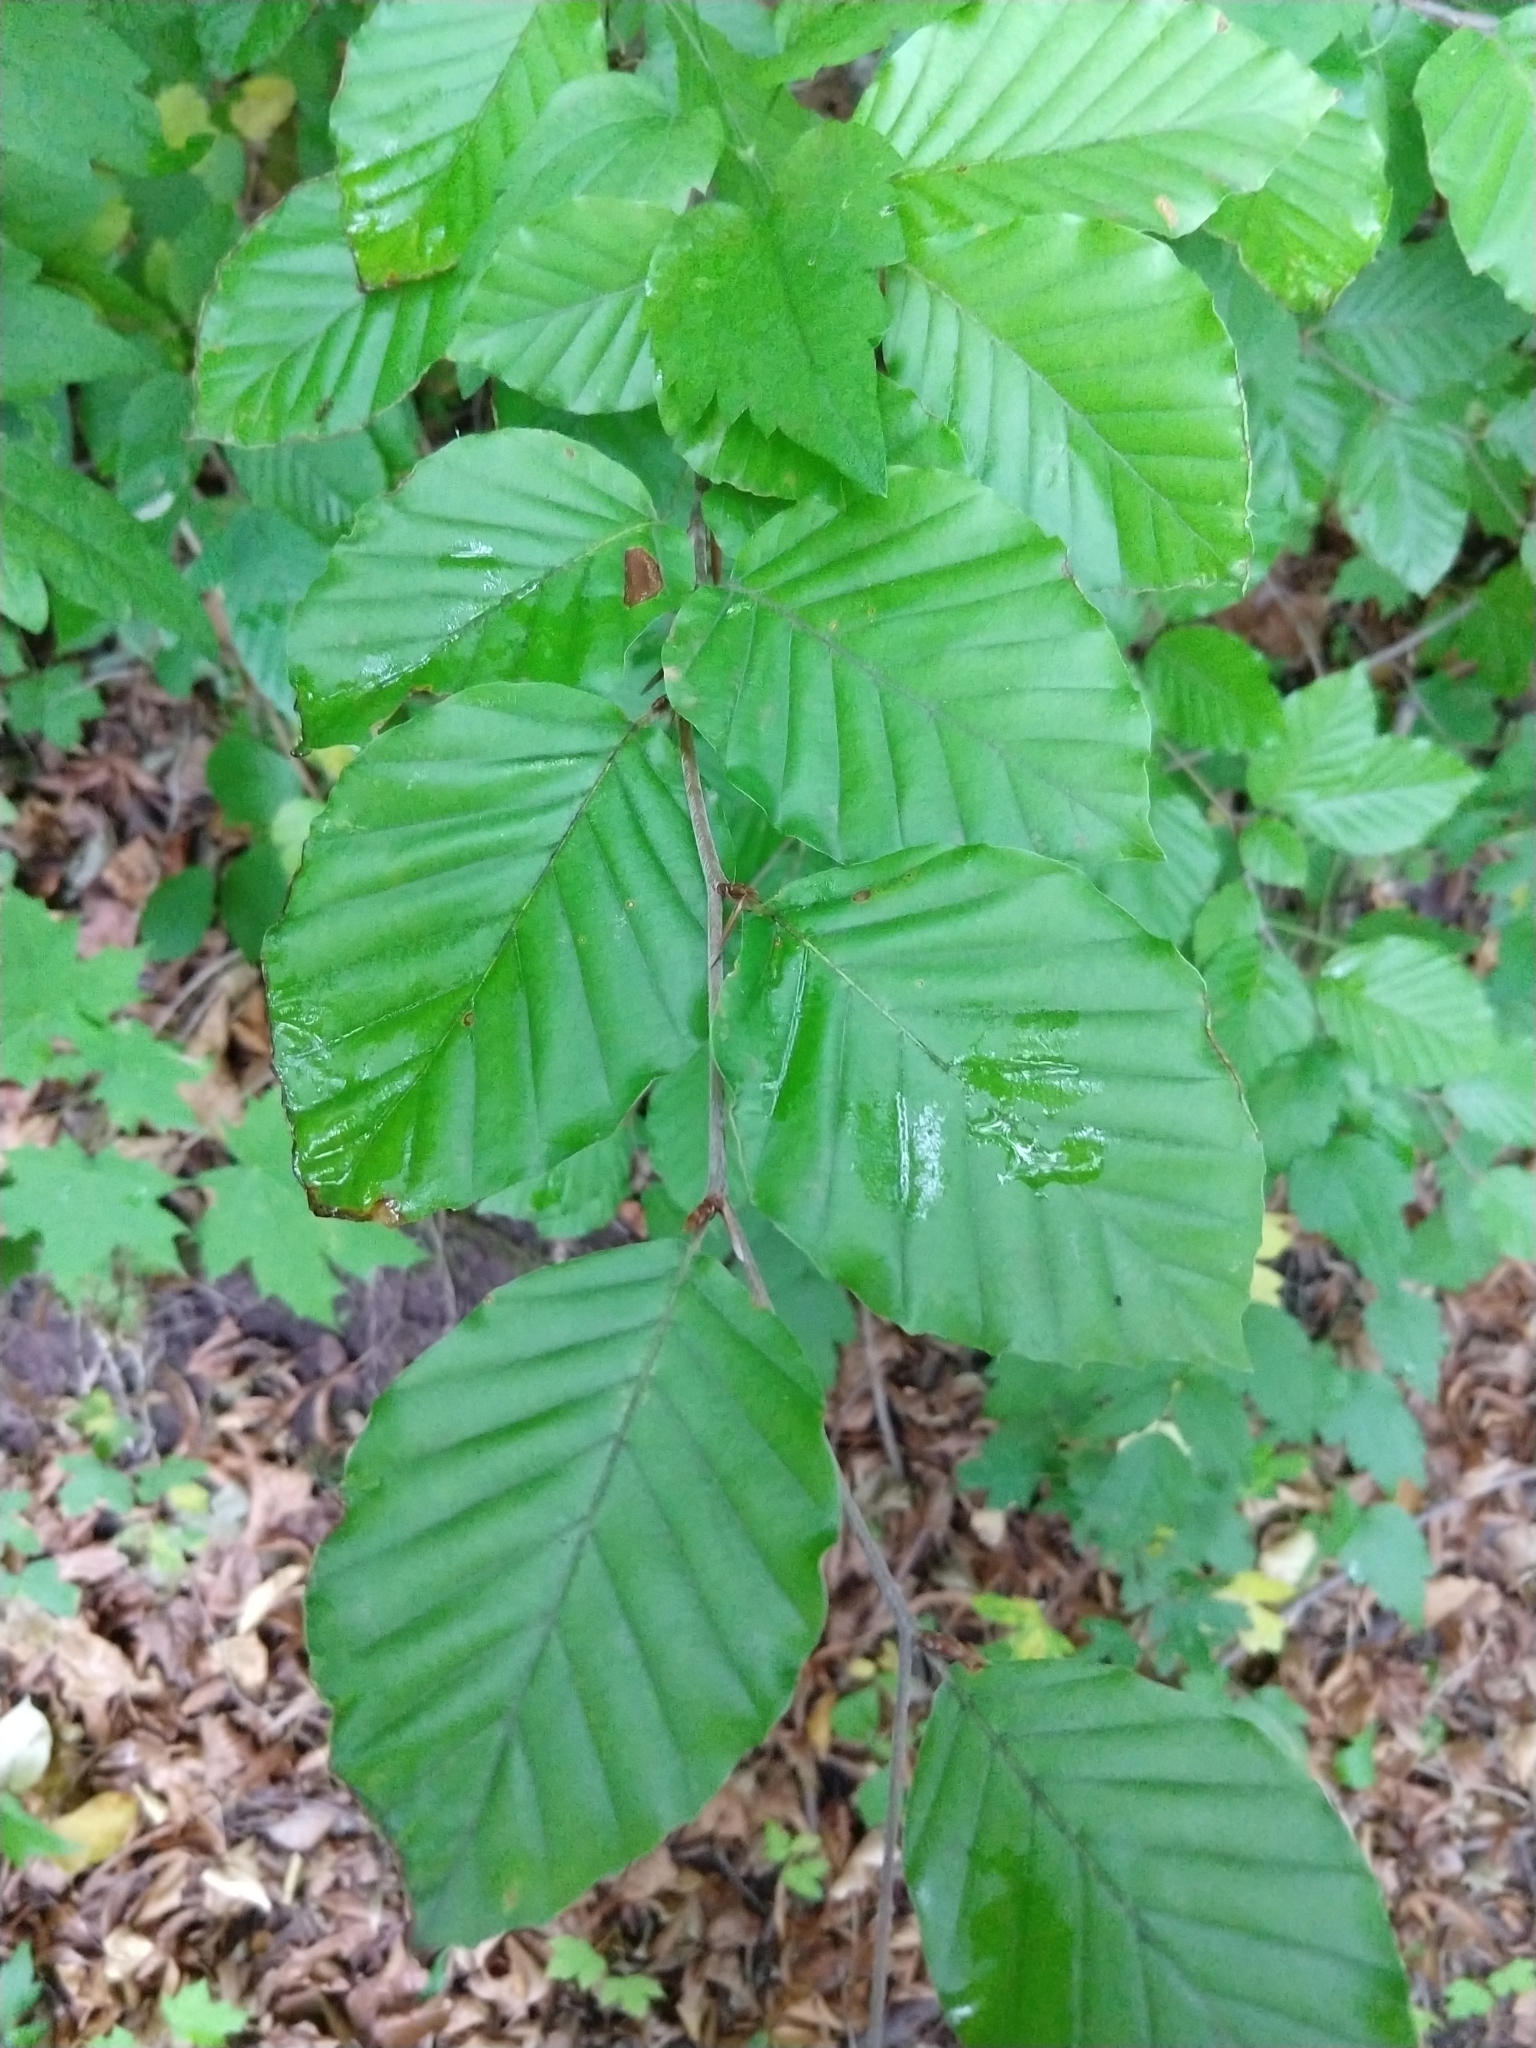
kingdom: Plantae
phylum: Tracheophyta
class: Magnoliopsida
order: Fagales
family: Fagaceae
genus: Fagus
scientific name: Fagus sylvatica
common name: Beech
